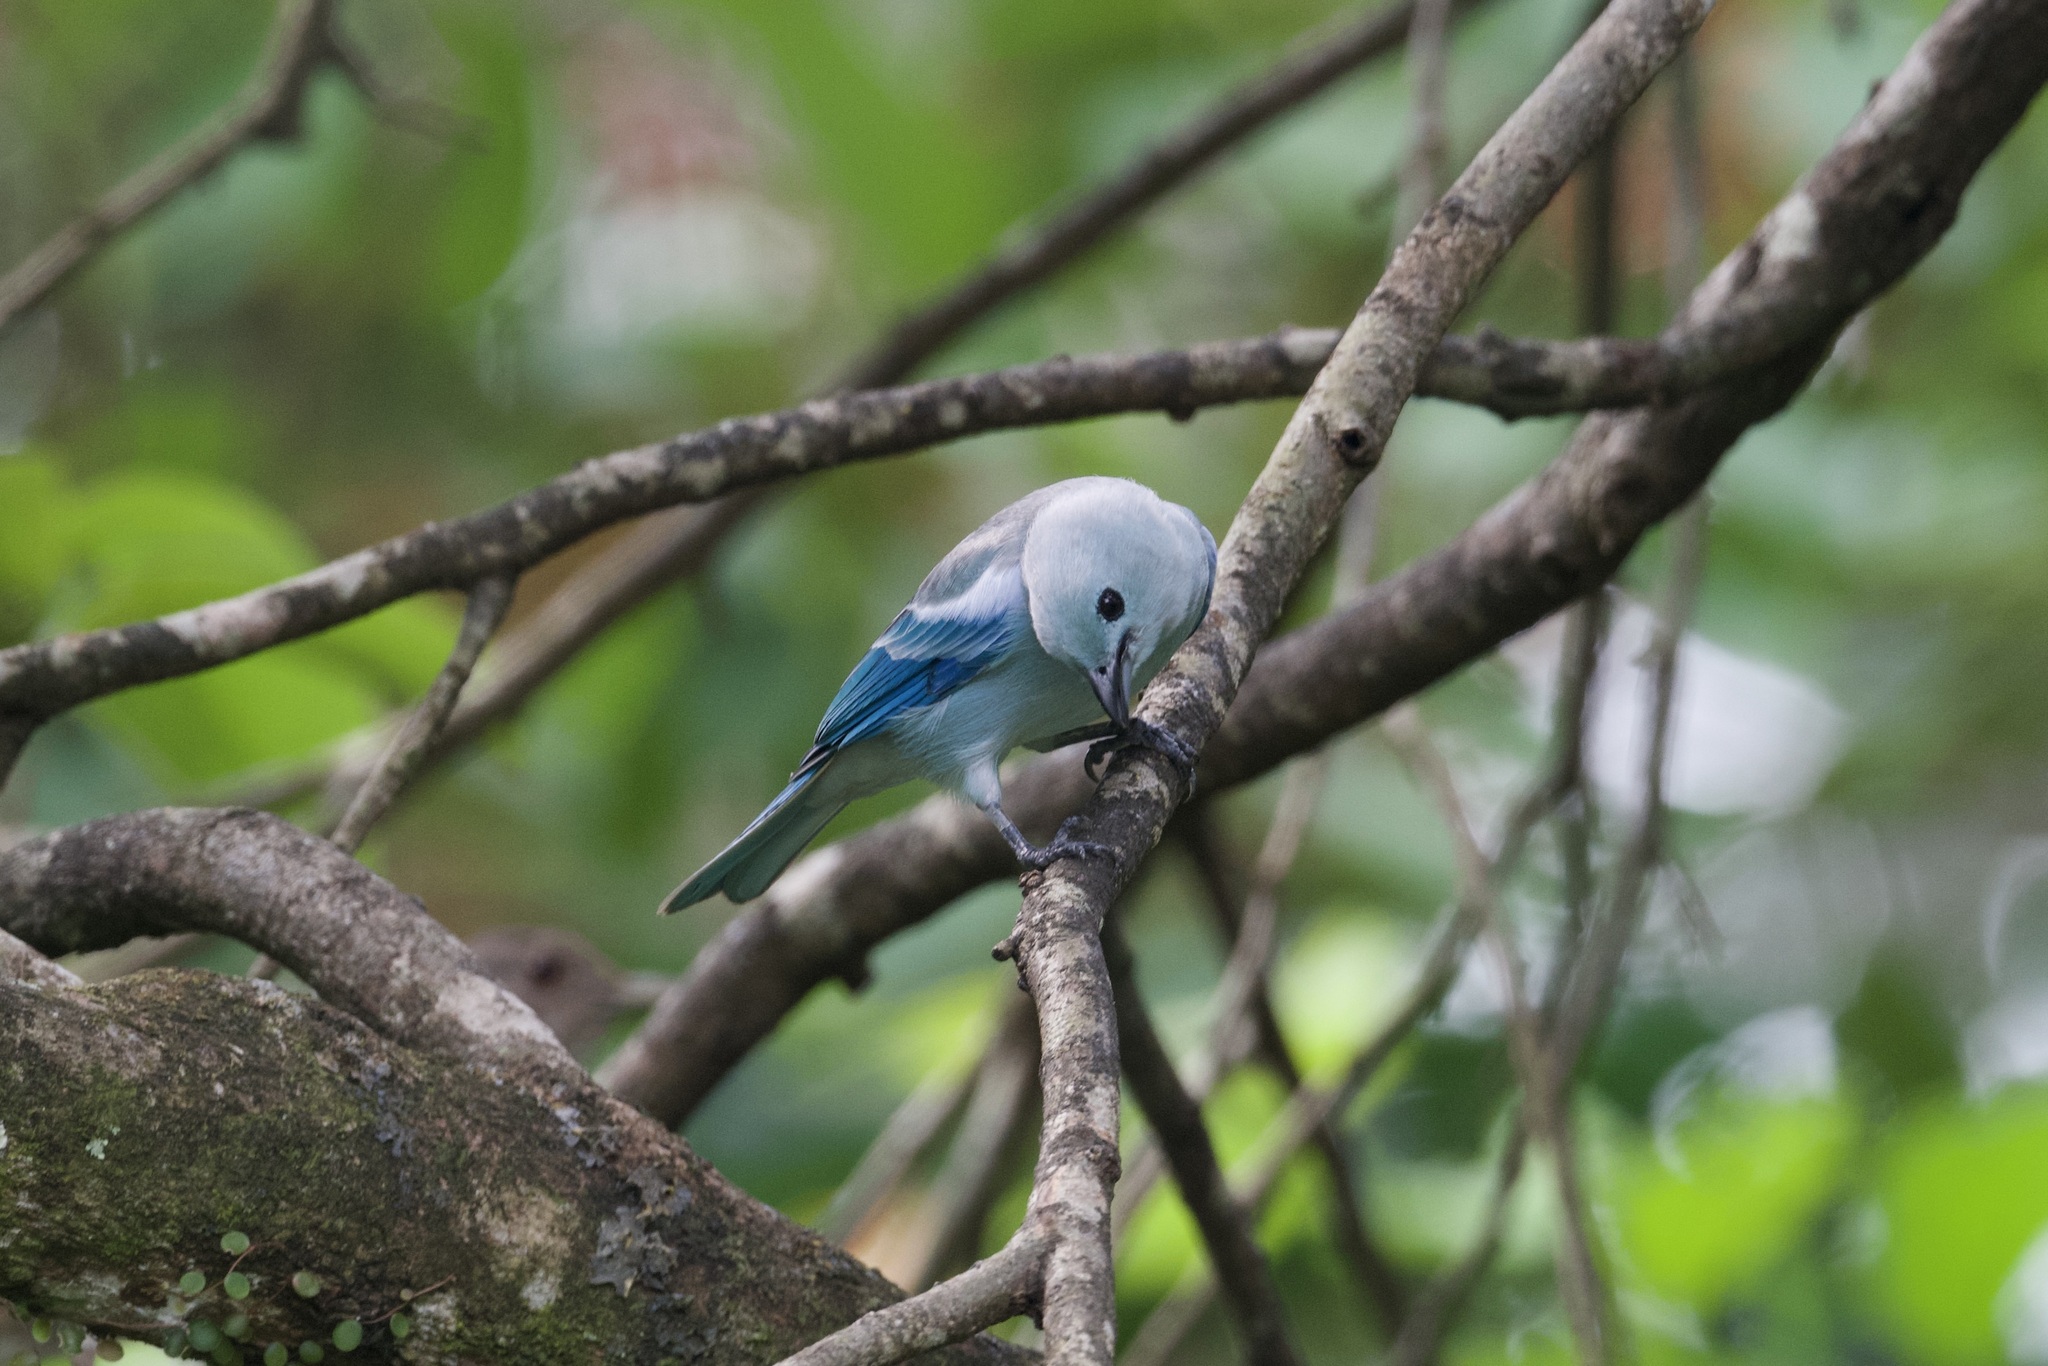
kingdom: Animalia
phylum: Chordata
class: Aves
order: Passeriformes
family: Thraupidae
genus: Thraupis
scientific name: Thraupis episcopus
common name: Blue-grey tanager
